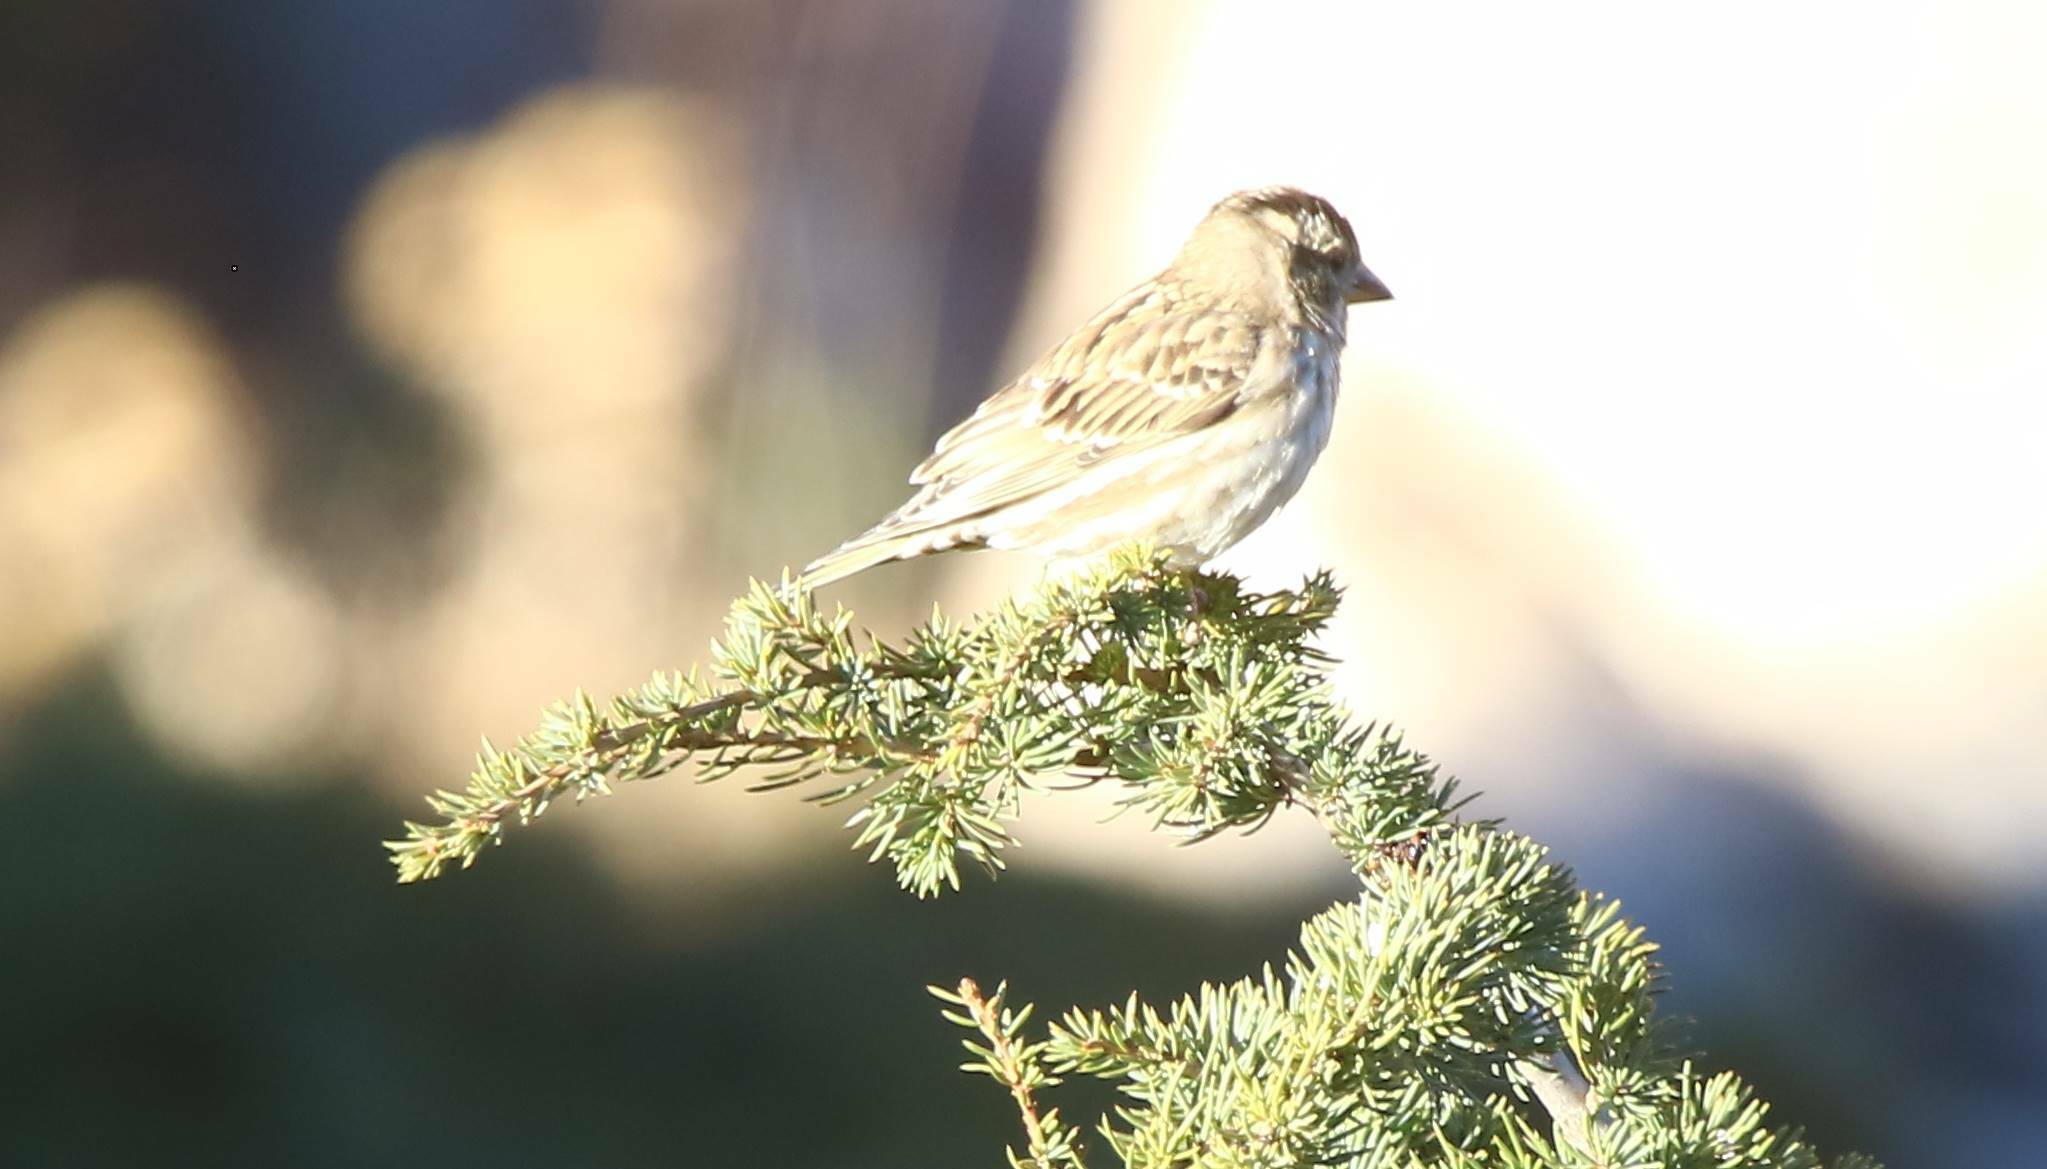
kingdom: Animalia
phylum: Chordata
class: Aves
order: Passeriformes
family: Passeridae
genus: Petronia
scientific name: Petronia petronia
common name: Rock sparrow
